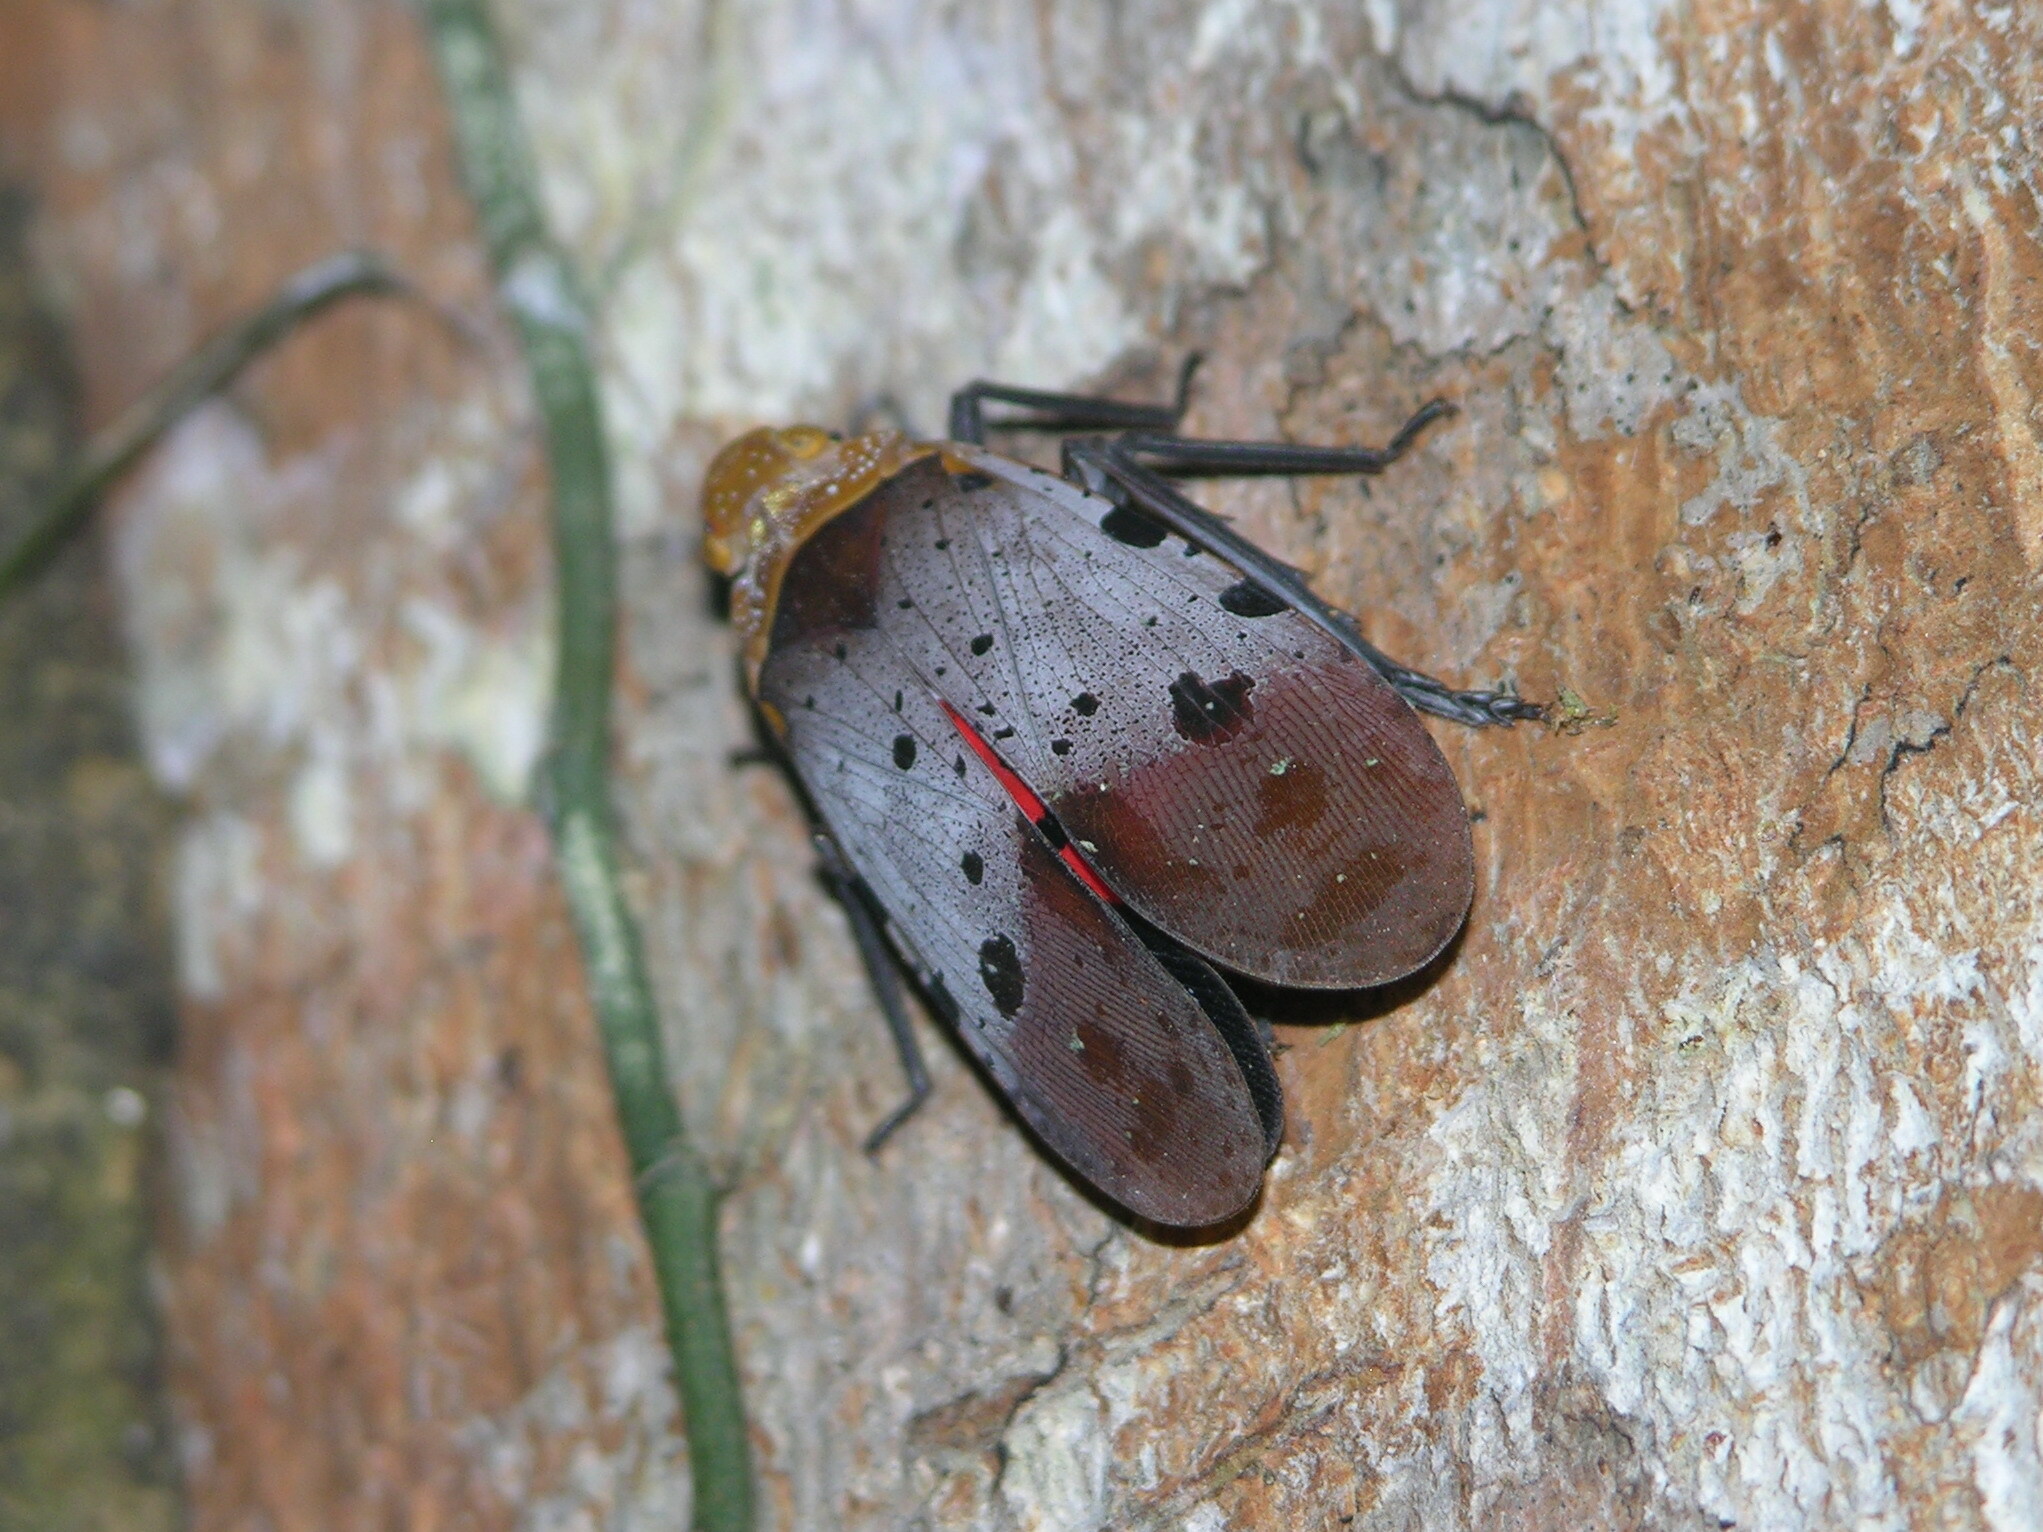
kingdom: Animalia
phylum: Arthropoda
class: Insecta
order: Hemiptera
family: Fulgoridae
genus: Penthicodes
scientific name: Penthicodes atomaria
